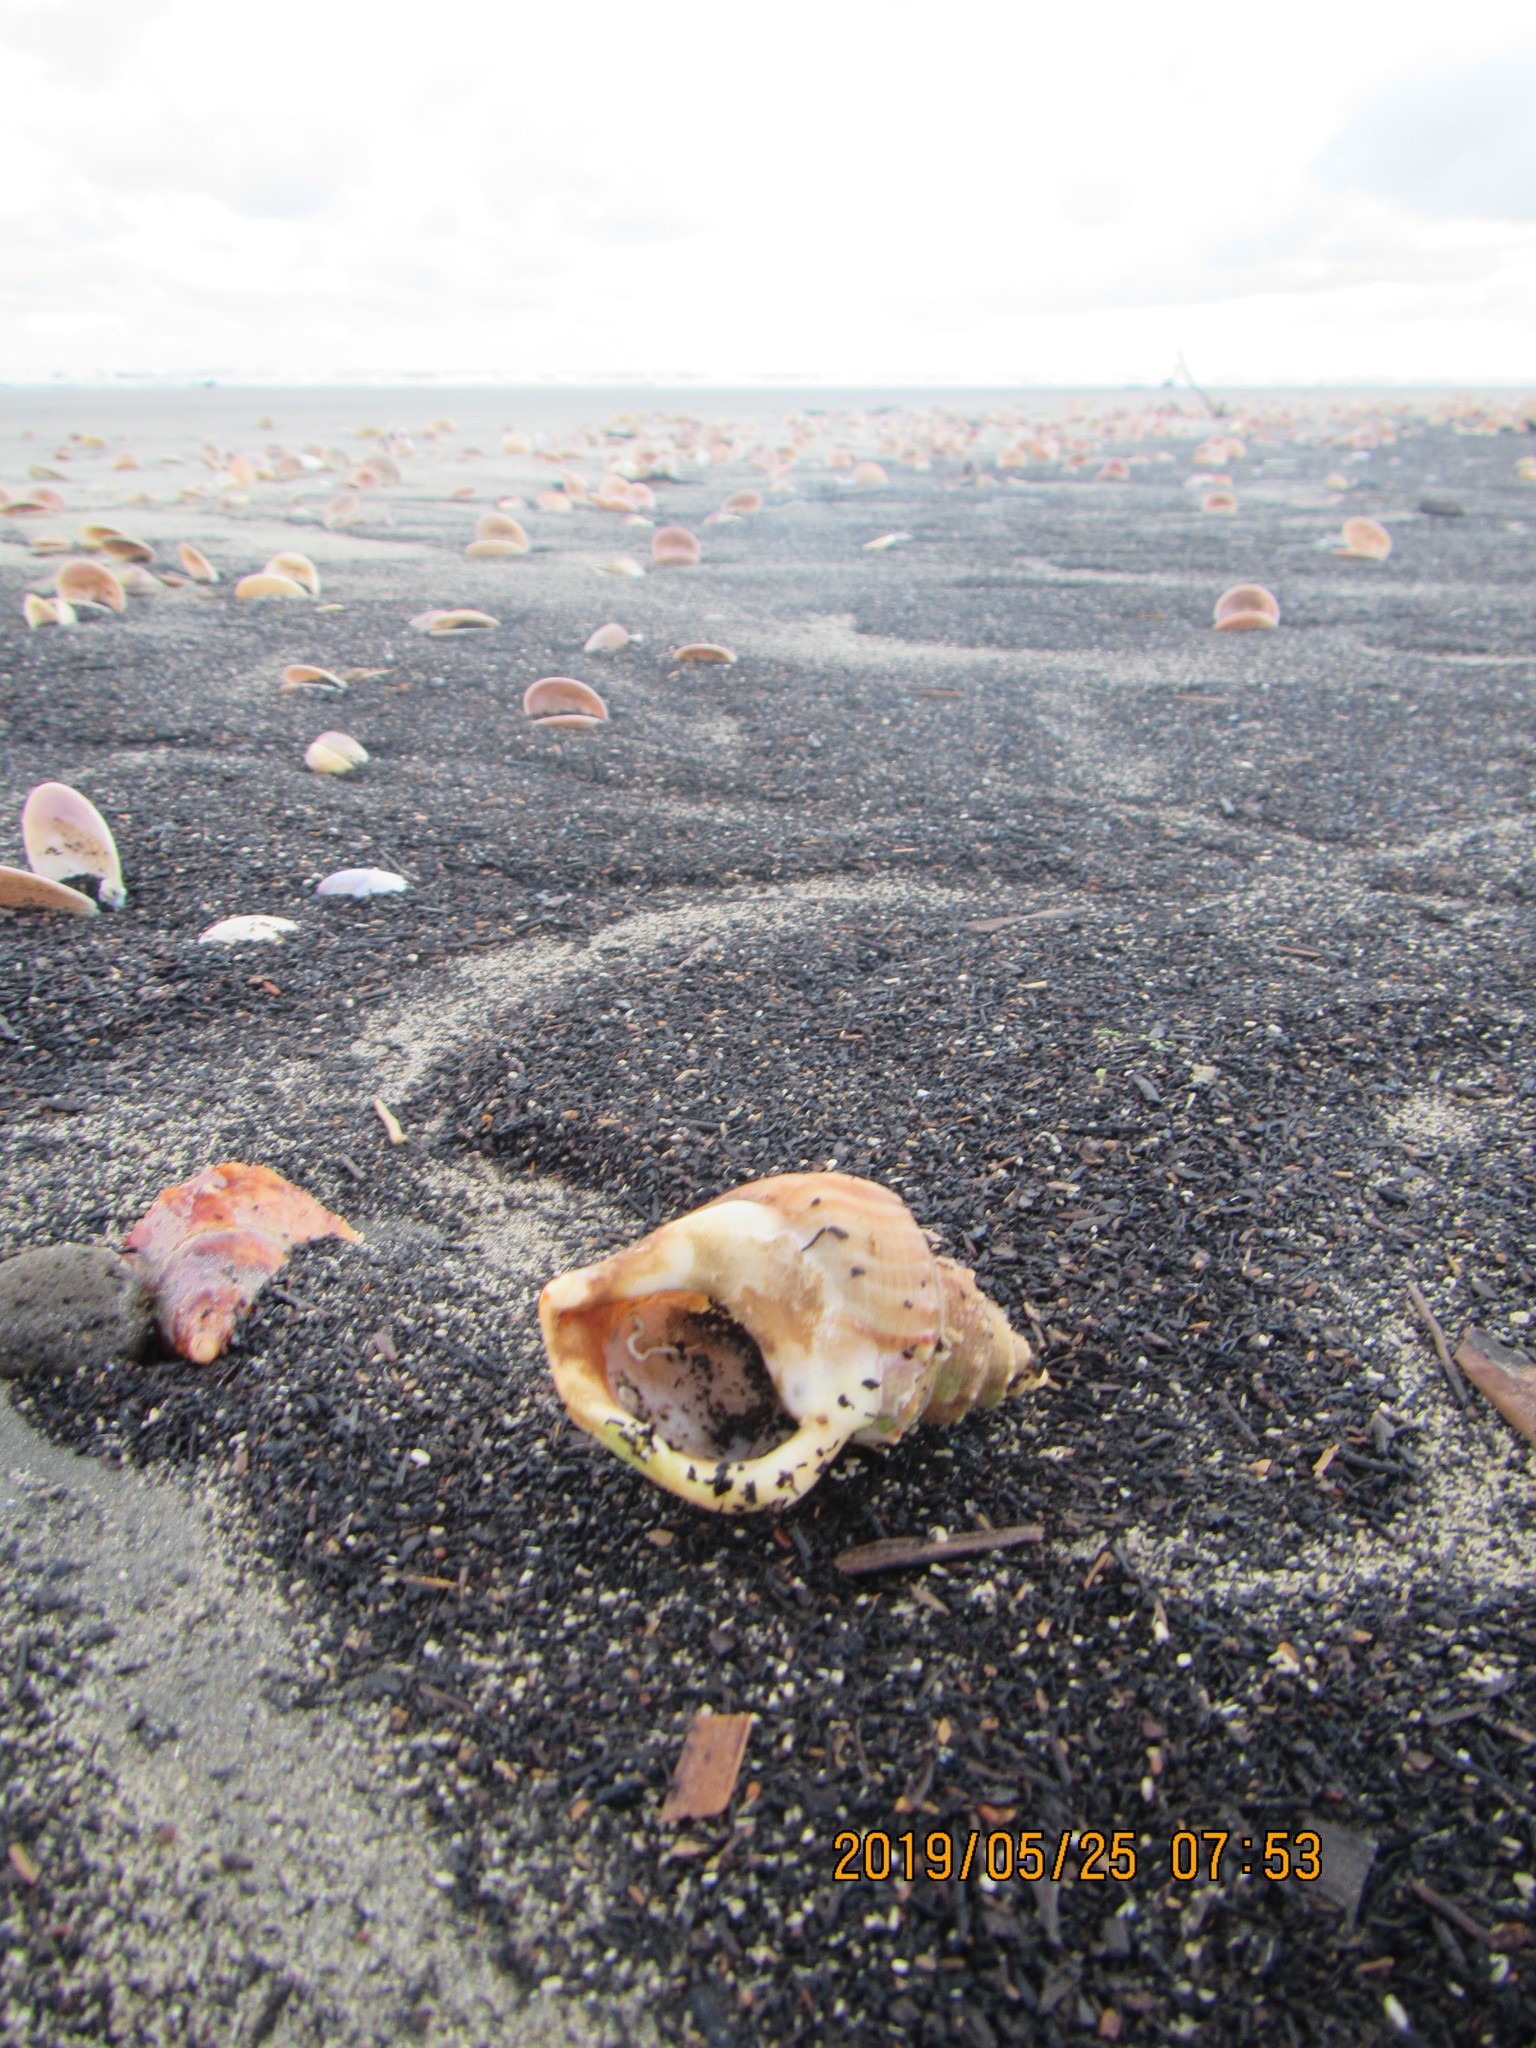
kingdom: Animalia
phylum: Mollusca
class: Gastropoda
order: Littorinimorpha
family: Struthiolariidae
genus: Struthiolaria
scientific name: Struthiolaria papulosa
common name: Large ostrich foot
